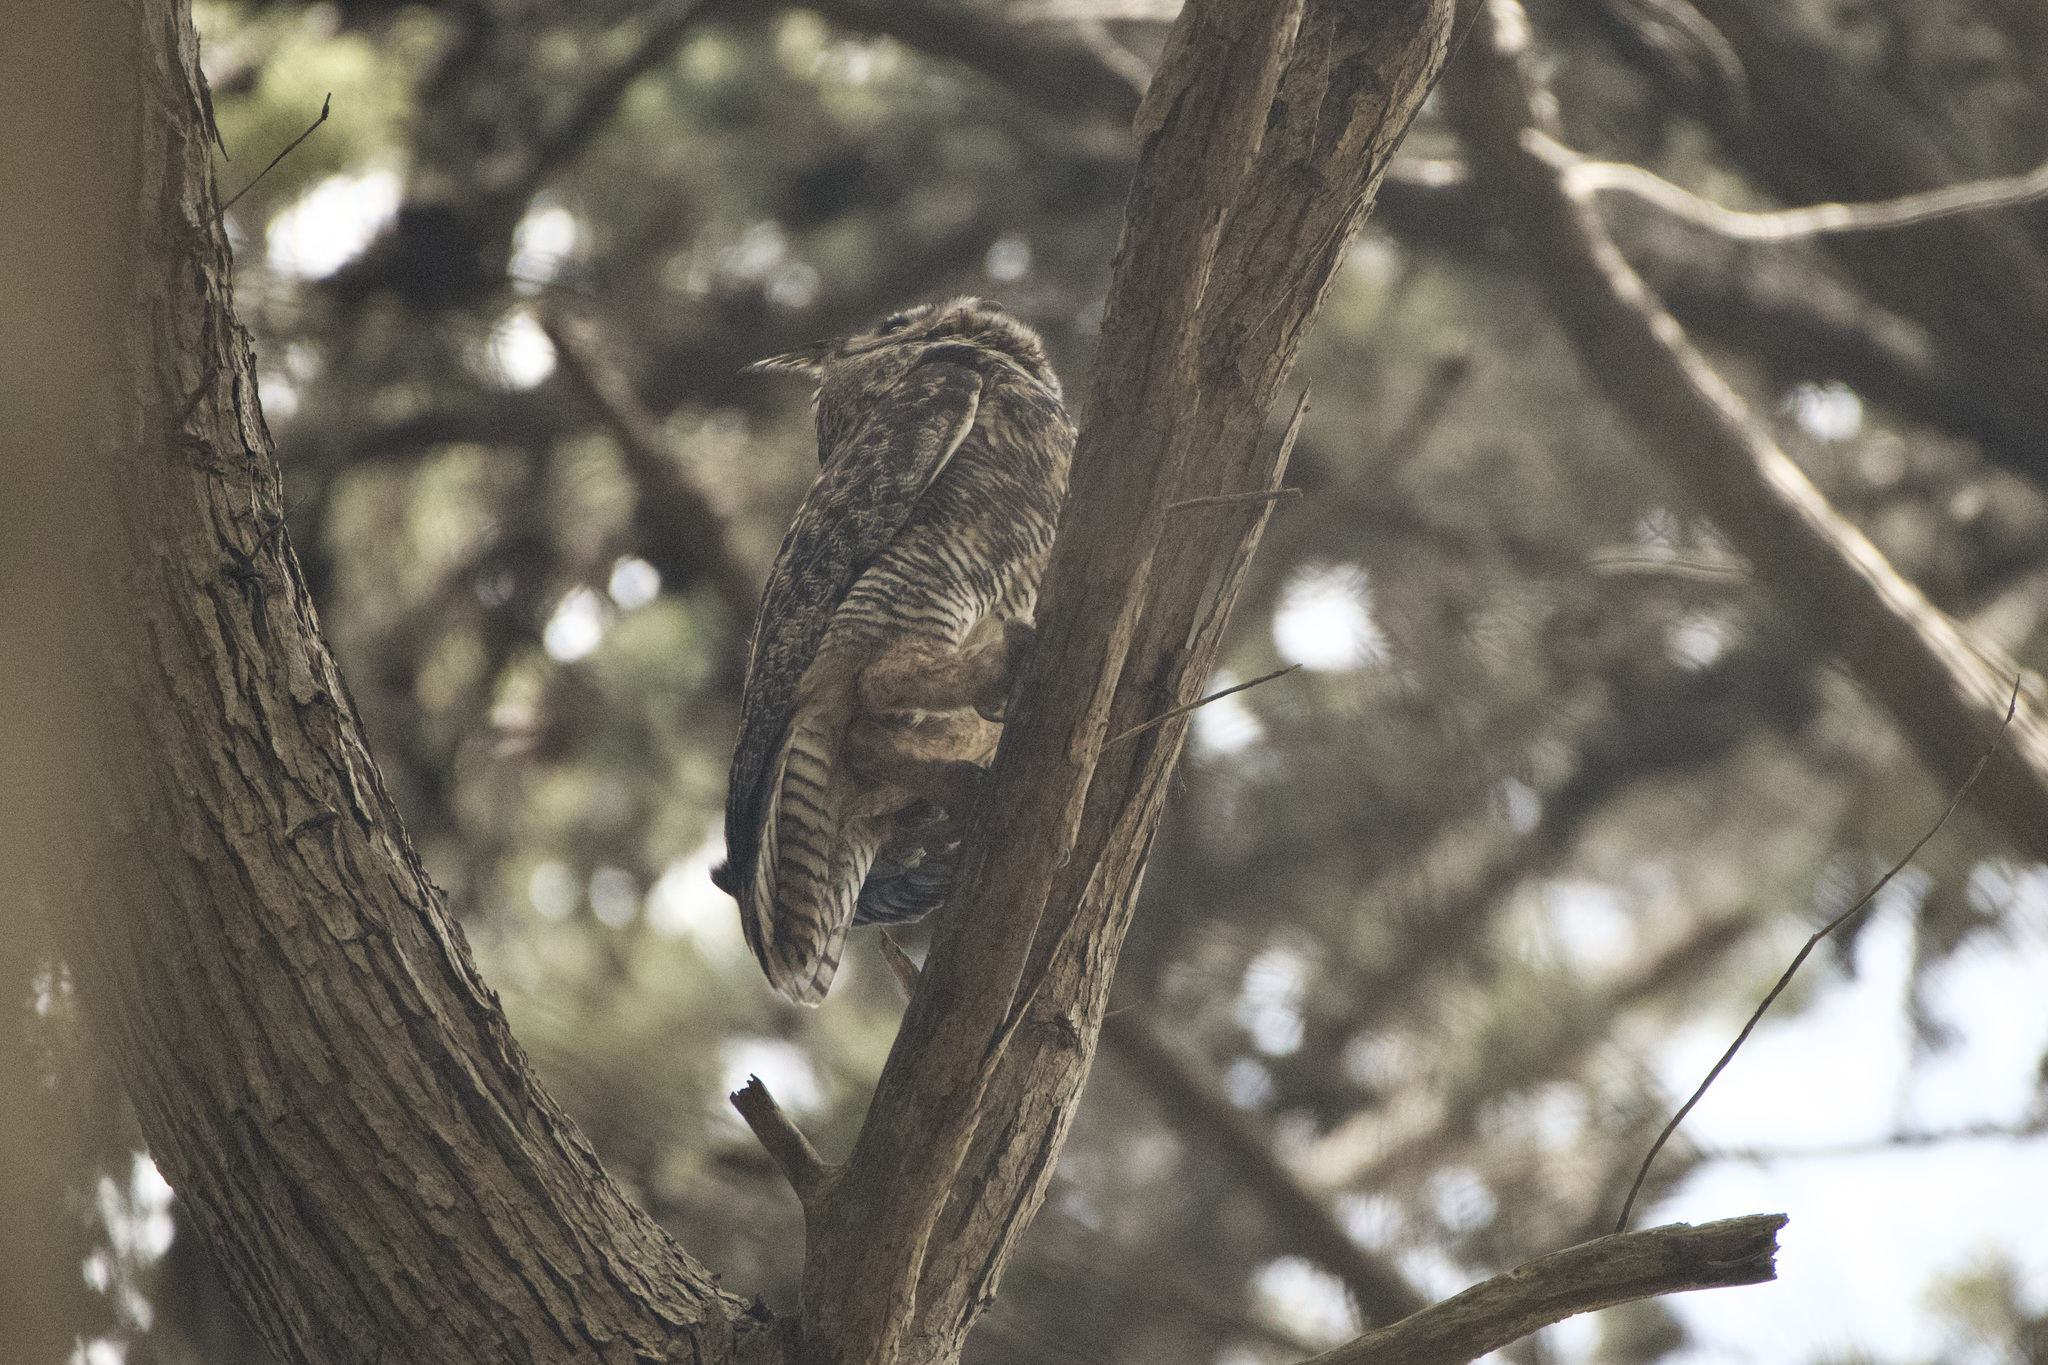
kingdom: Animalia
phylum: Chordata
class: Aves
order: Strigiformes
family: Strigidae
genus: Bubo
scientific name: Bubo virginianus
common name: Great horned owl
